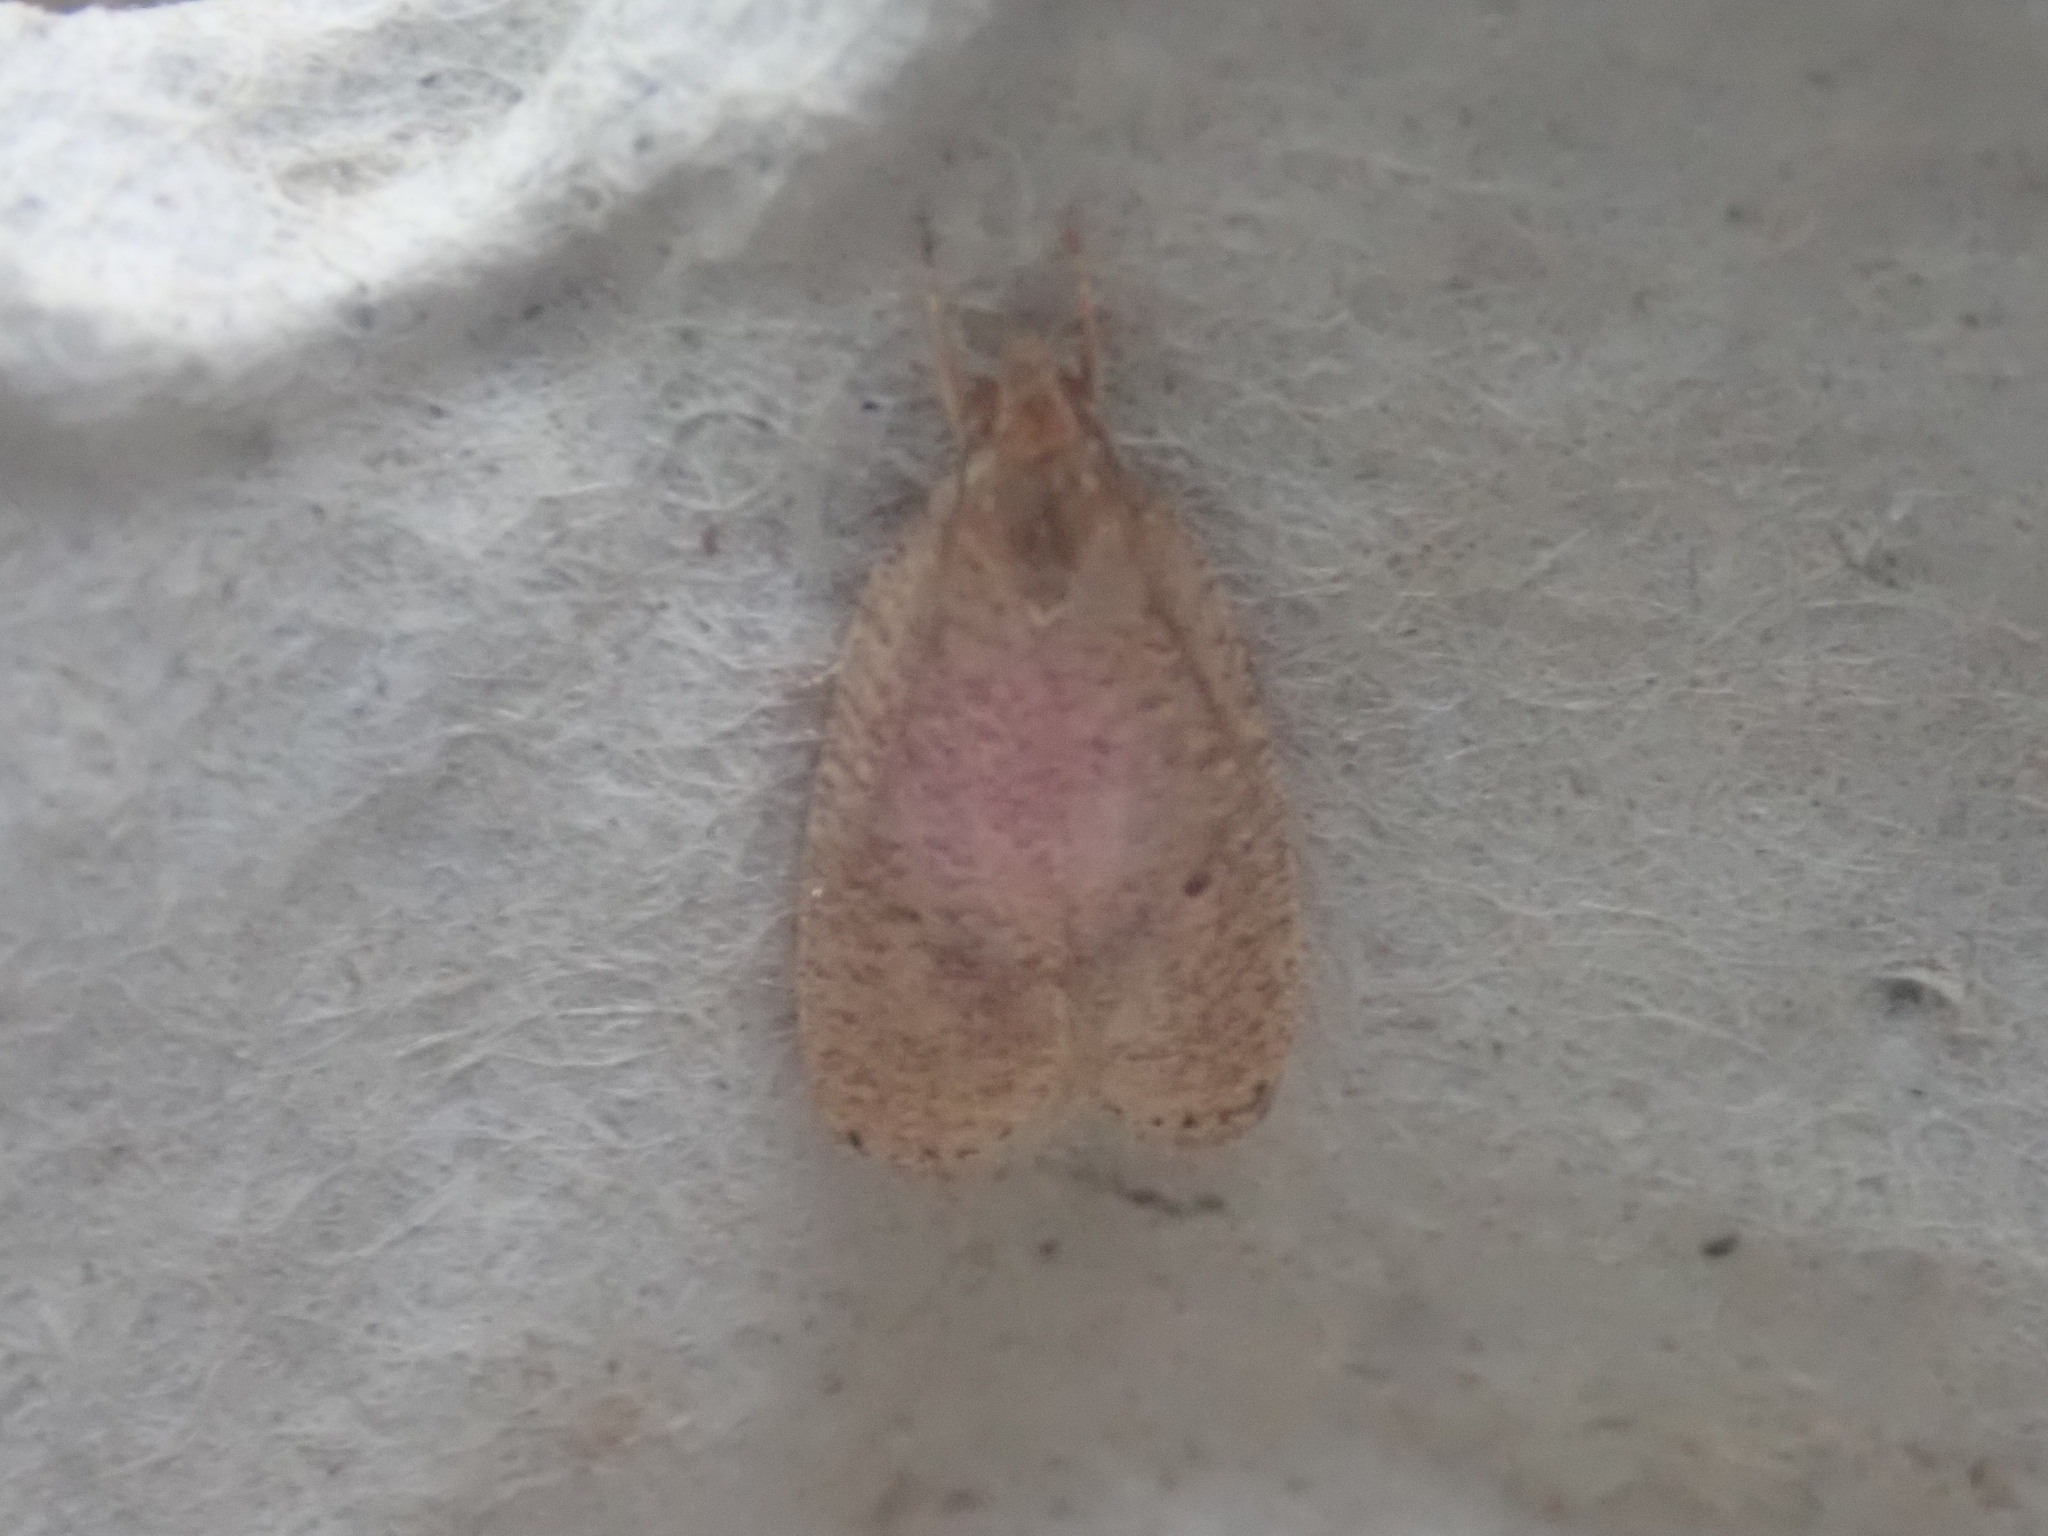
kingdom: Animalia
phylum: Arthropoda
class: Insecta
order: Lepidoptera
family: Depressariidae
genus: Psilocorsis
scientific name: Psilocorsis reflexella
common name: Dotted leaftier moth
